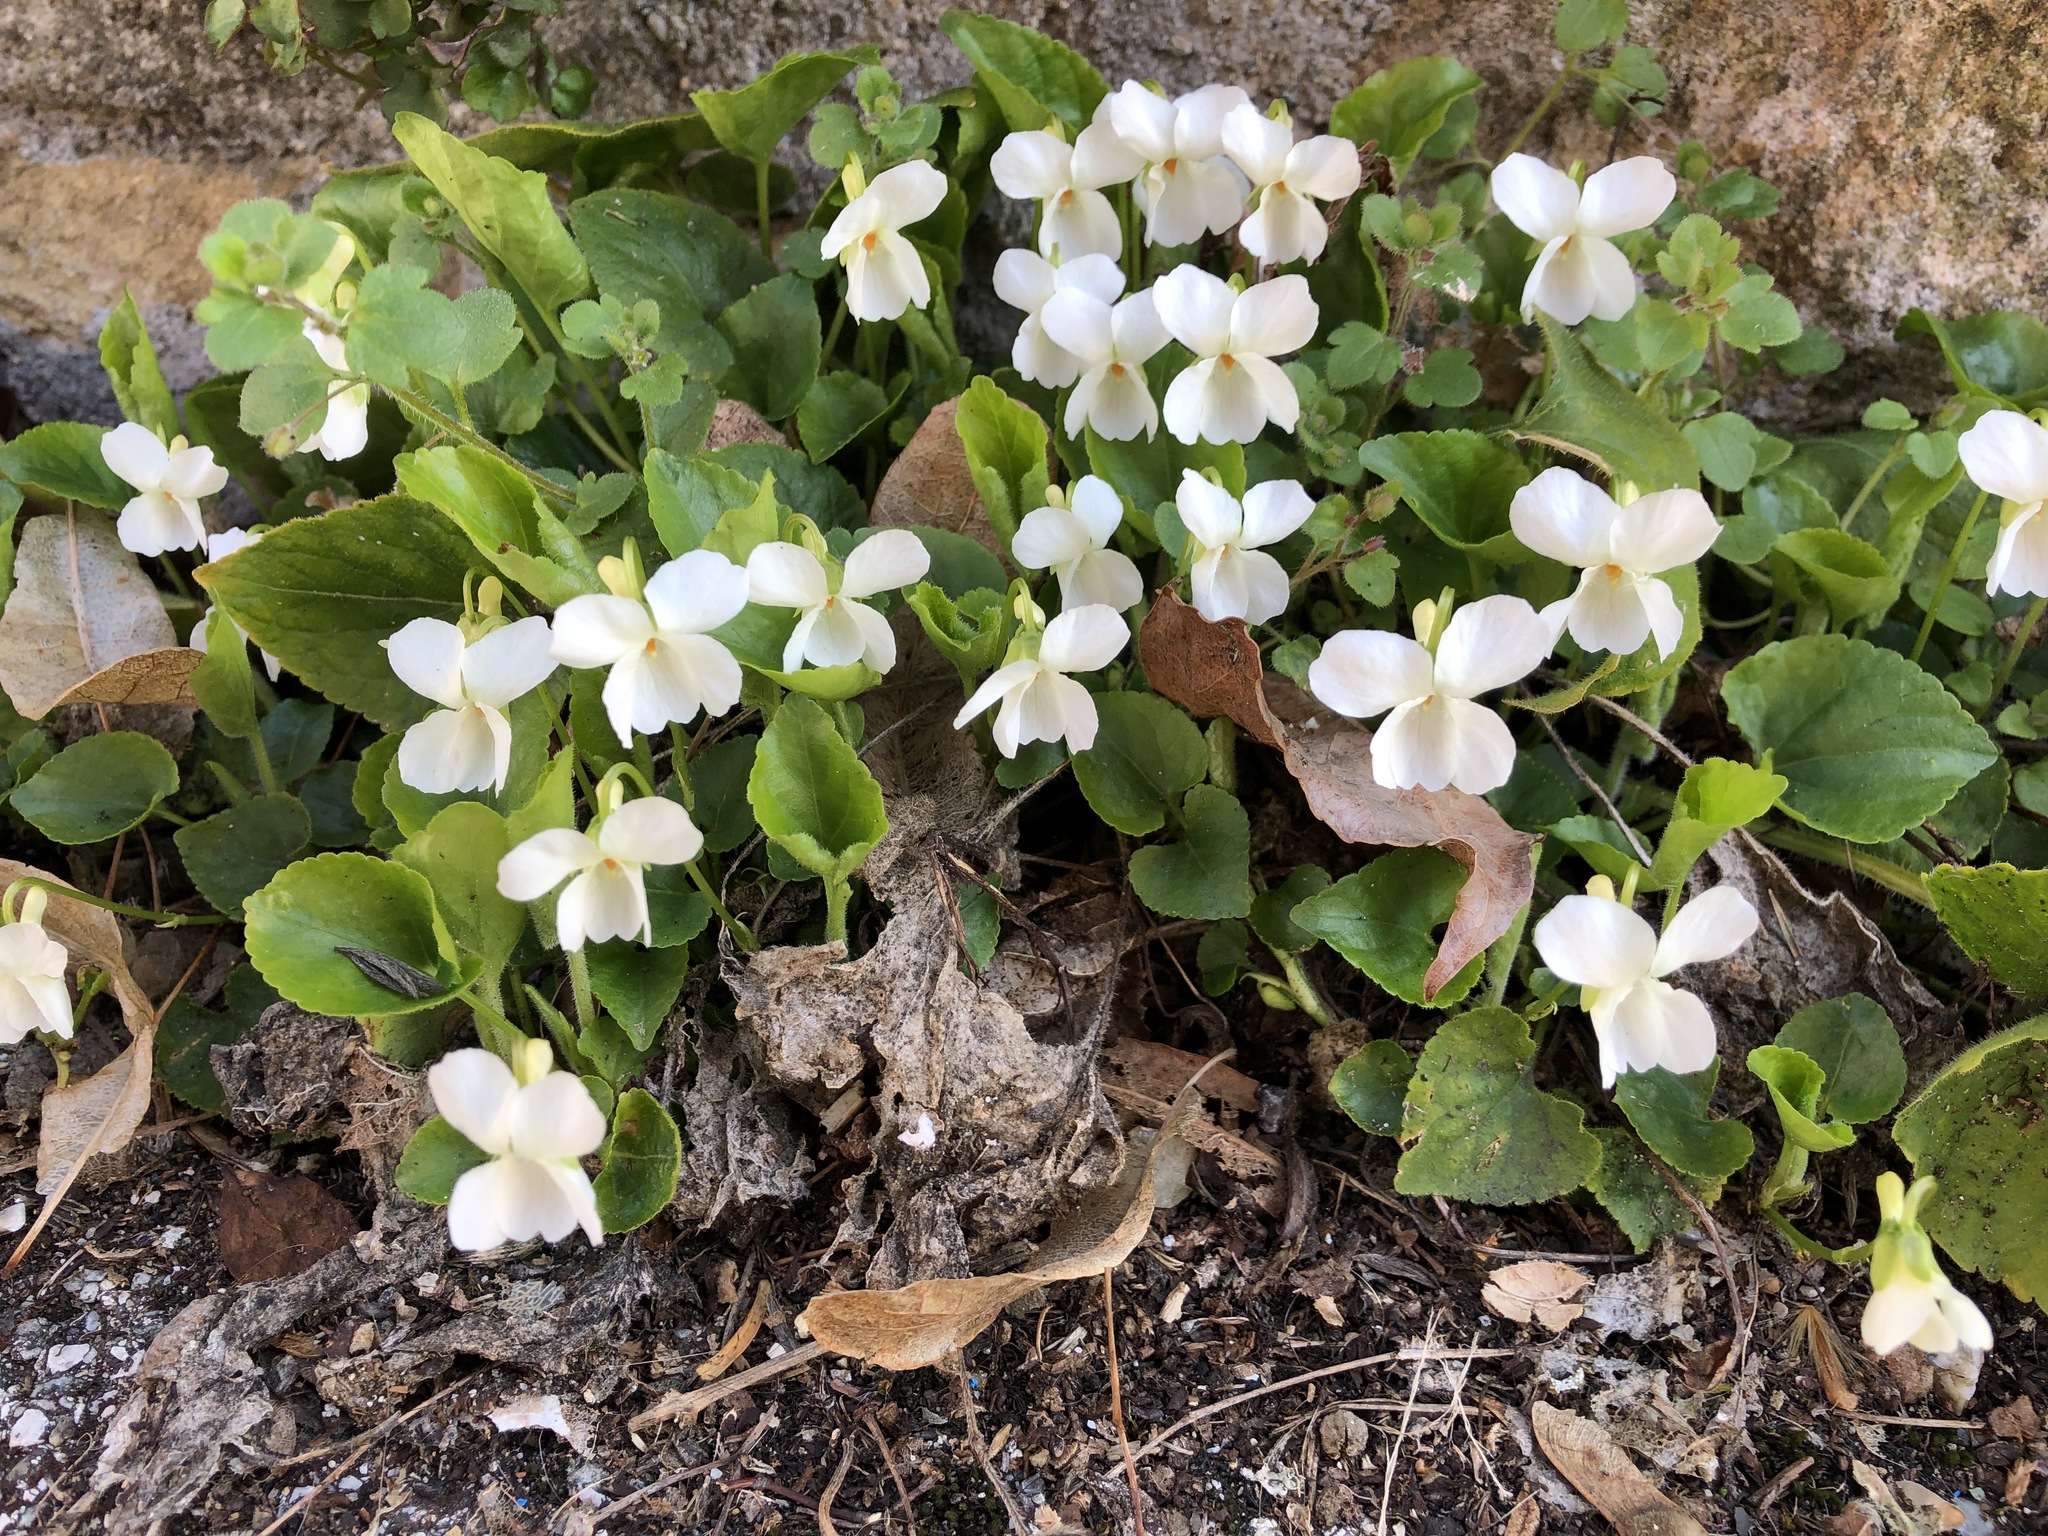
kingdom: Plantae
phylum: Tracheophyta
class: Magnoliopsida
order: Malpighiales
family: Violaceae
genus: Viola
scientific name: Viola alba
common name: White violet
